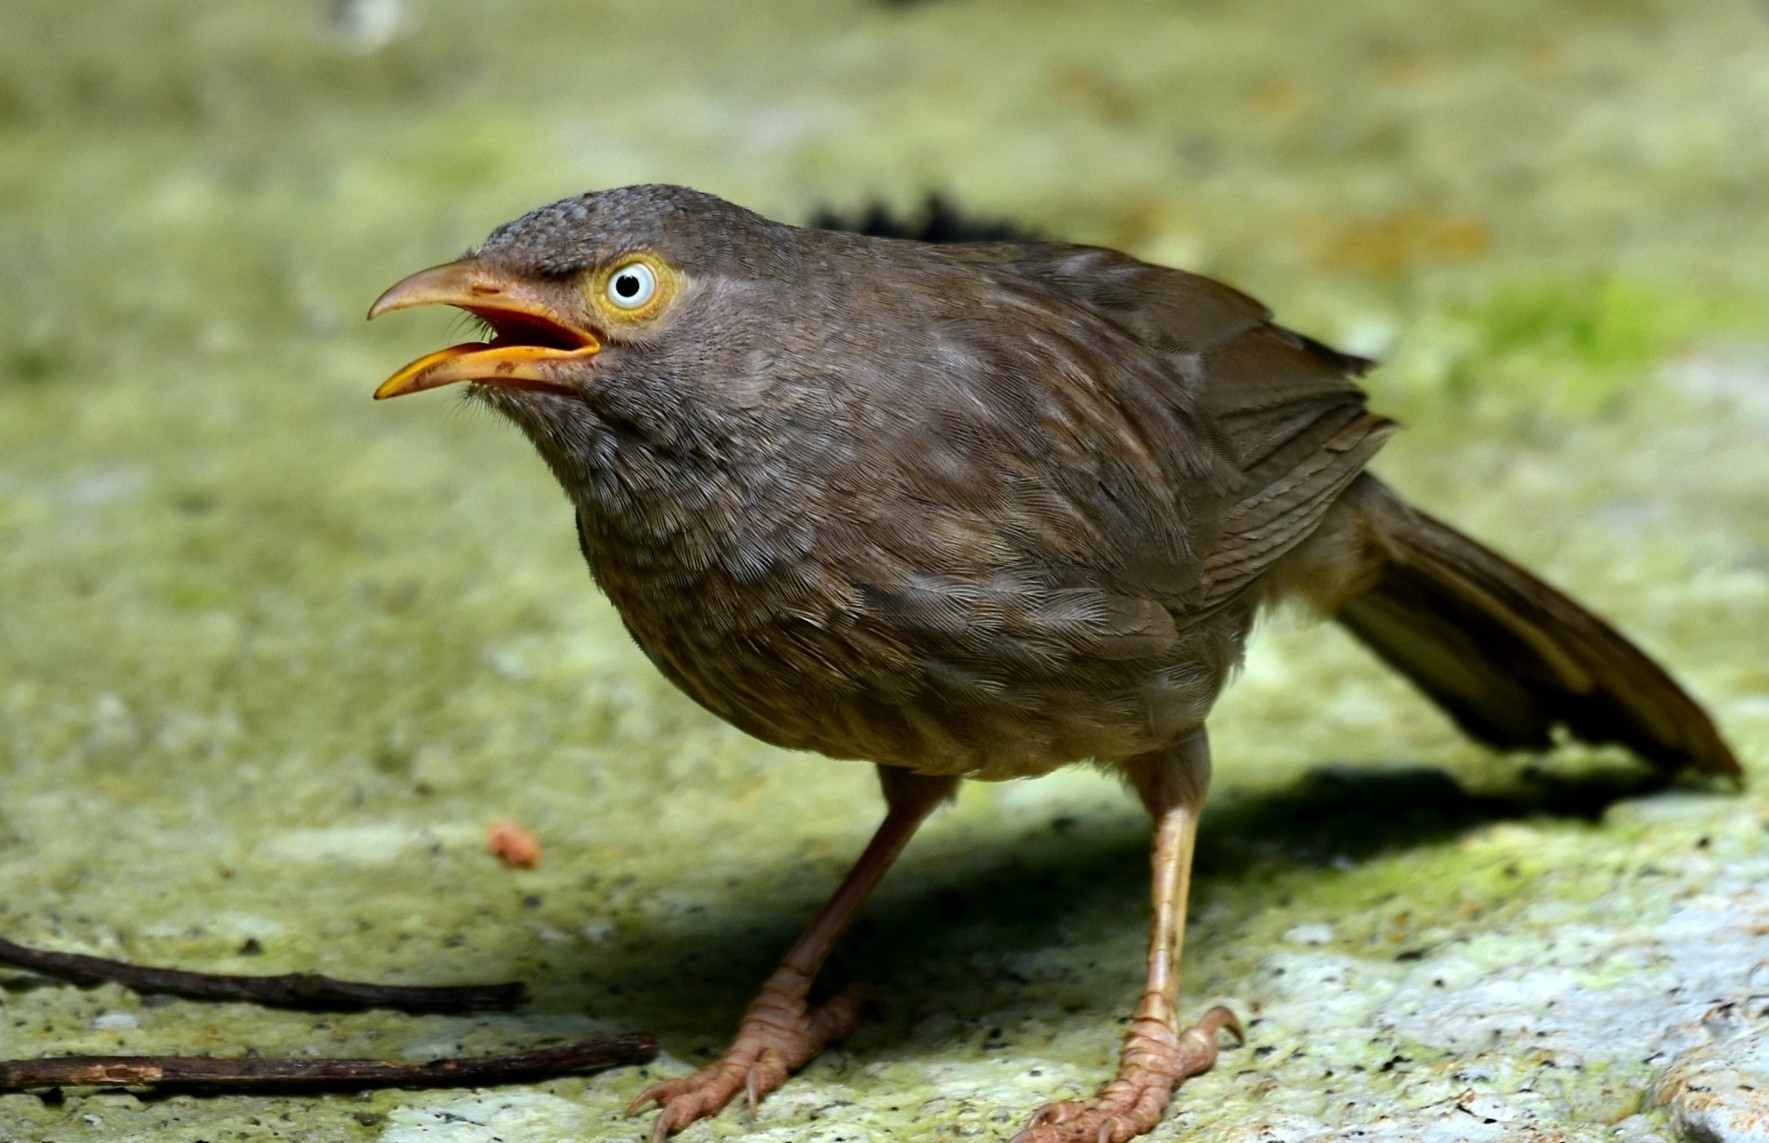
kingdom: Animalia
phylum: Chordata
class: Aves
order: Passeriformes
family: Leiothrichidae
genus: Turdoides
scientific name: Turdoides striata
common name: Jungle babbler
